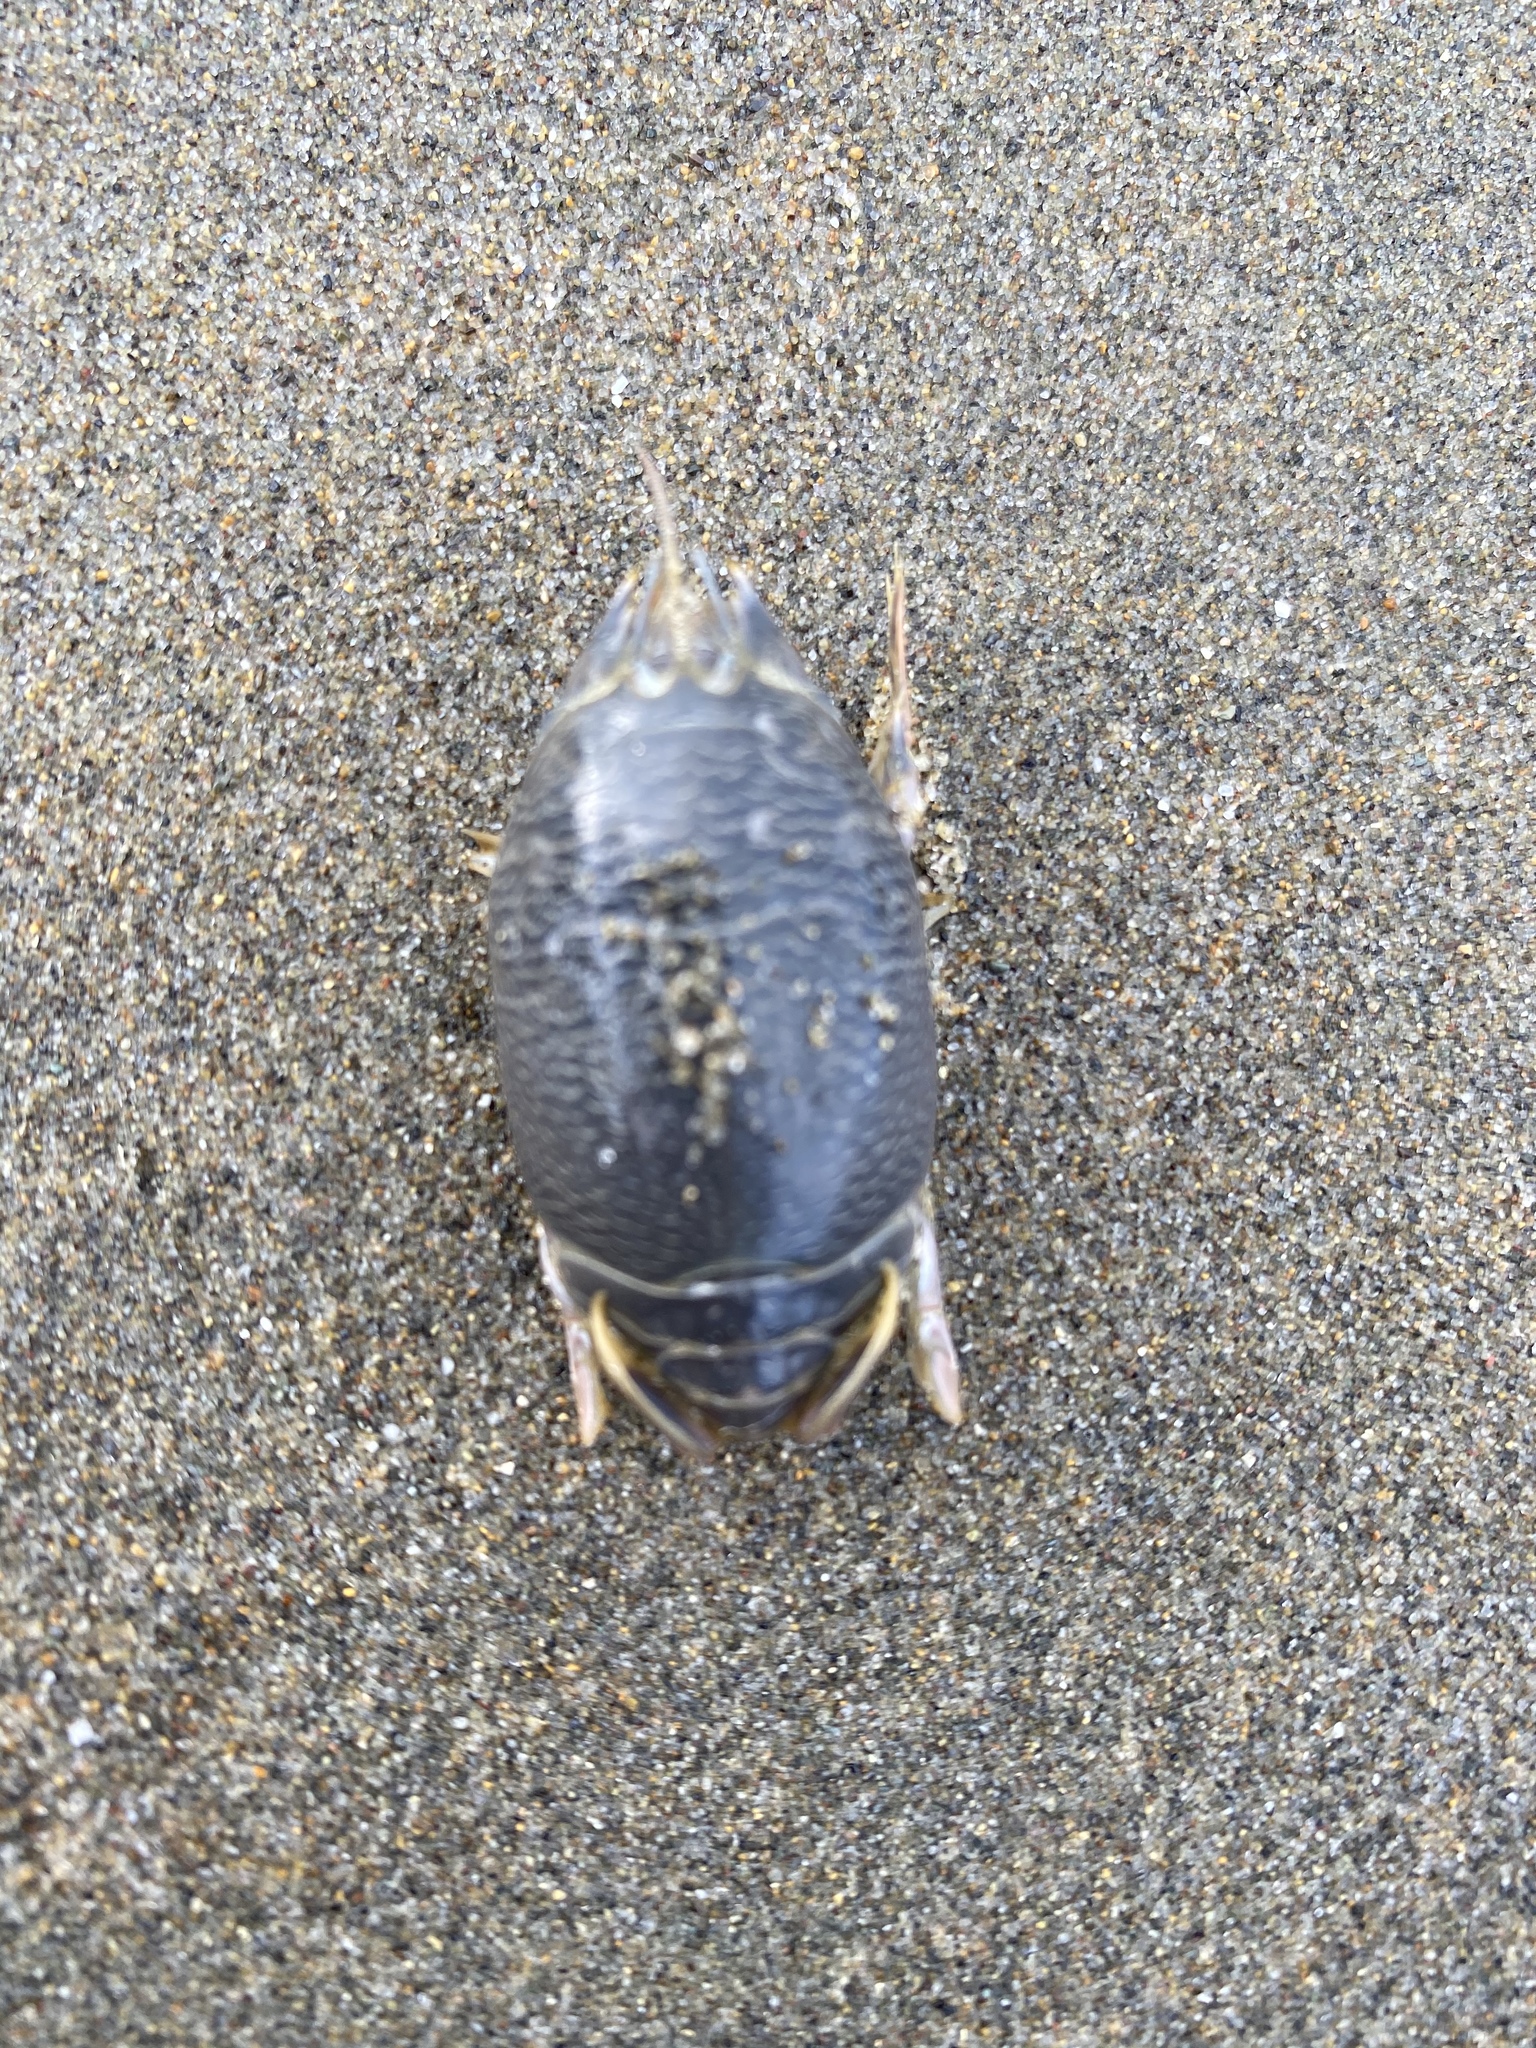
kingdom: Animalia
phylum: Arthropoda
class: Malacostraca
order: Decapoda
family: Hippidae
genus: Emerita
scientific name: Emerita analoga
